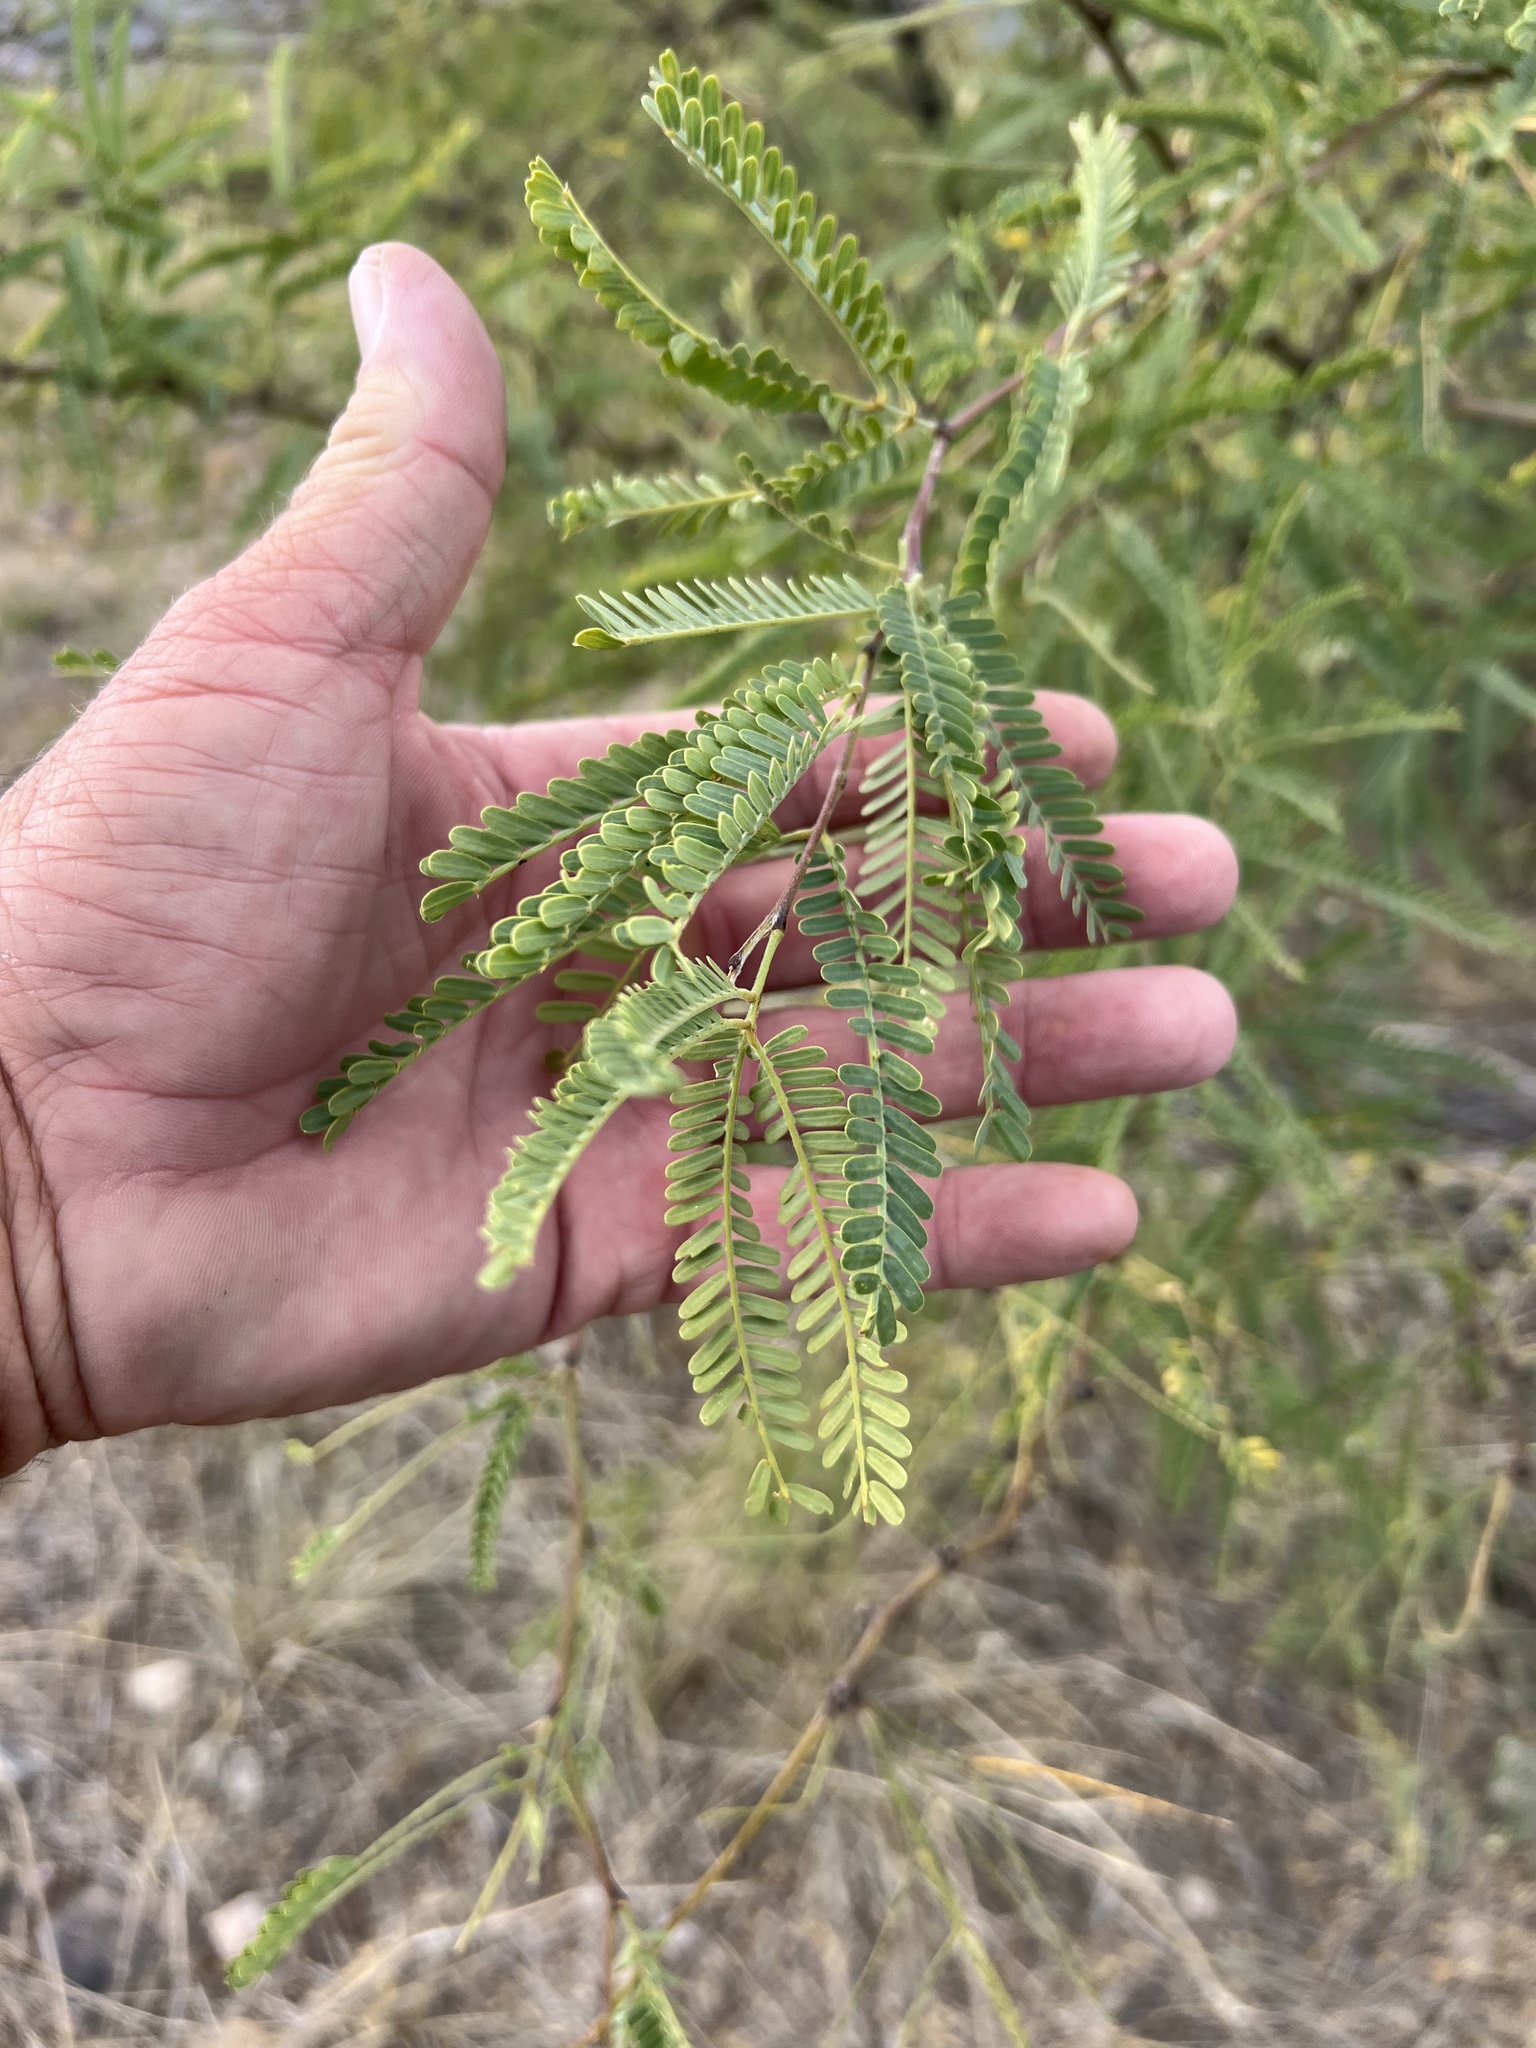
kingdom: Plantae
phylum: Tracheophyta
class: Magnoliopsida
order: Fabales
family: Fabaceae
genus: Prosopis
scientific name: Prosopis velutina
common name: Velvet mesquite
